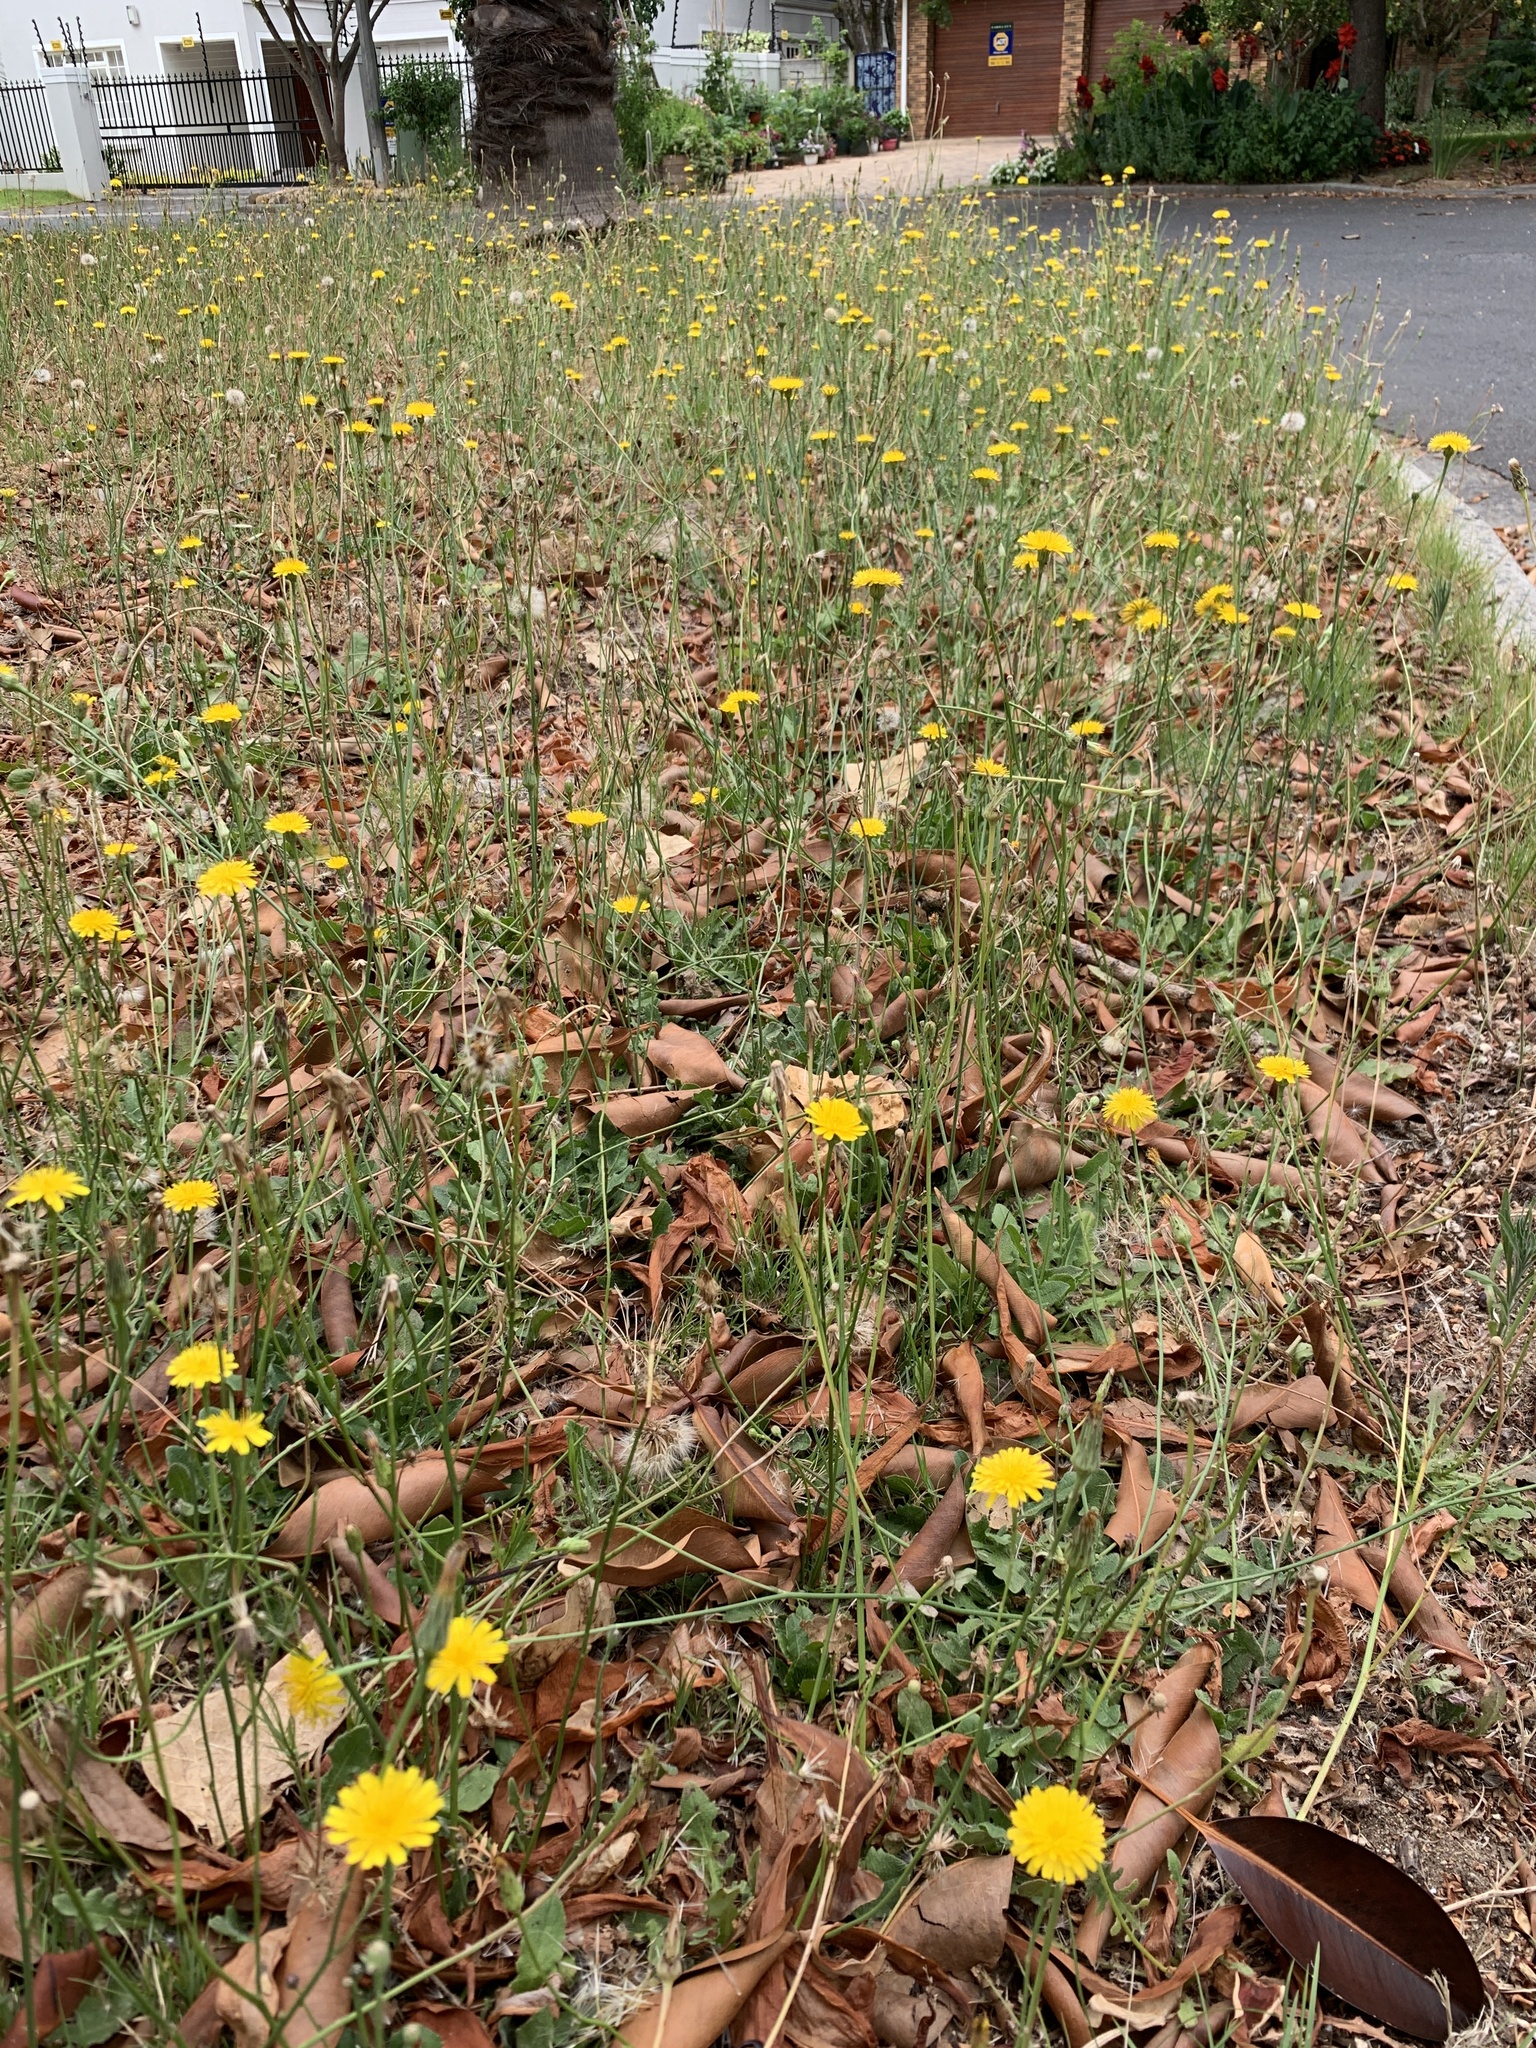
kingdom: Plantae
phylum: Tracheophyta
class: Magnoliopsida
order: Asterales
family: Asteraceae
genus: Hypochaeris
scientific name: Hypochaeris radicata
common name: Flatweed
